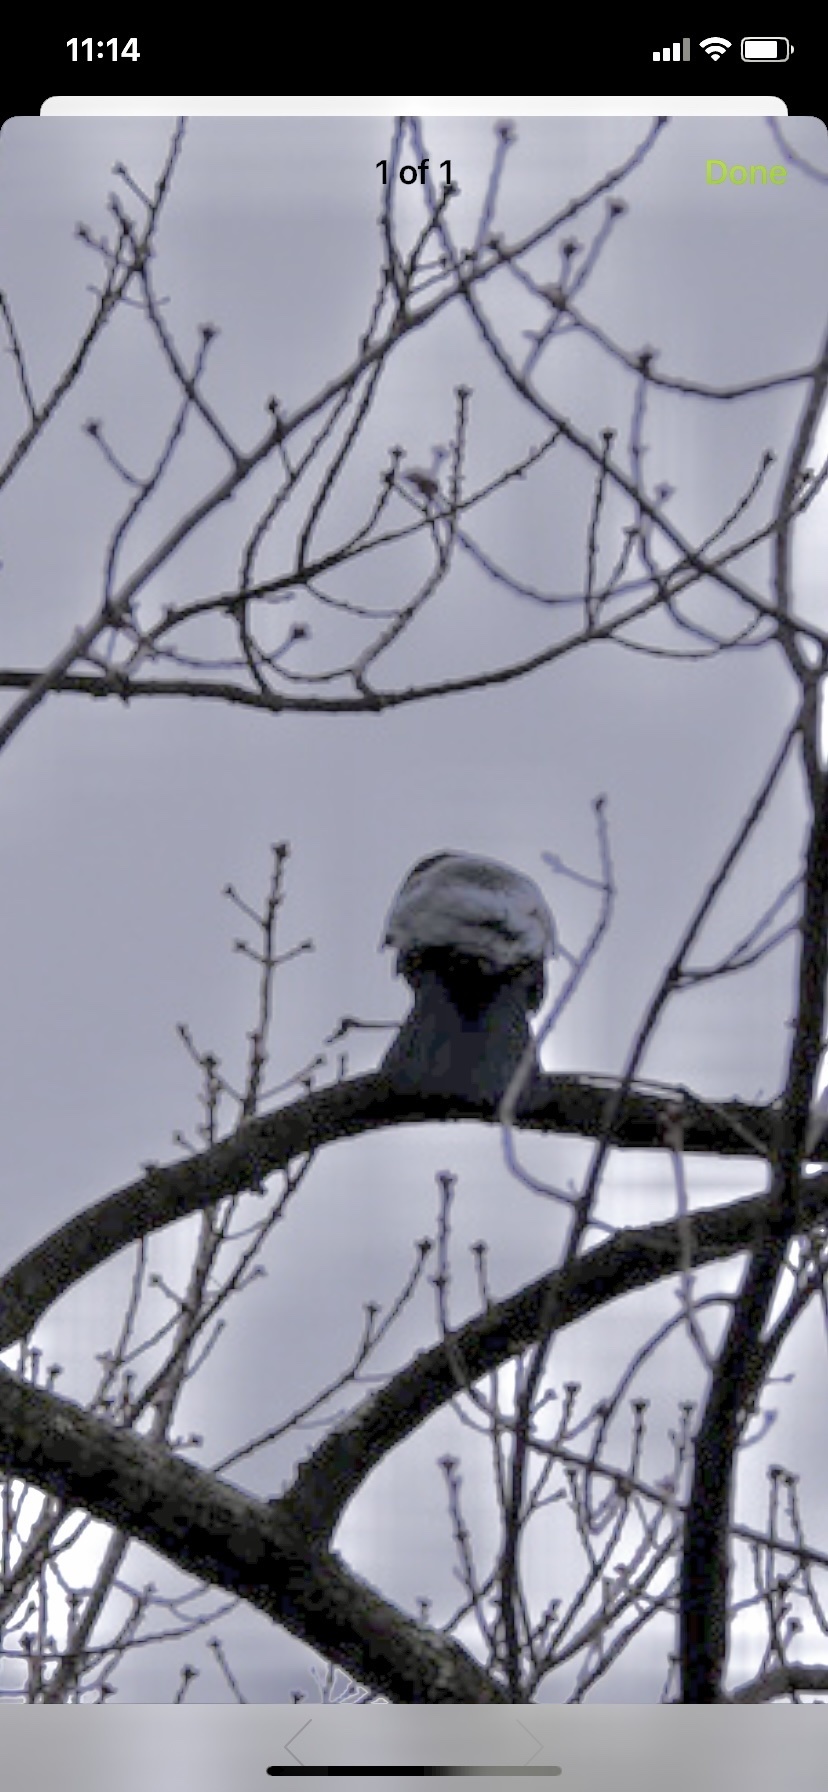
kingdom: Animalia
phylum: Chordata
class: Aves
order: Passeriformes
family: Corvidae
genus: Corvus
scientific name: Corvus brachyrhynchos
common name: American crow
